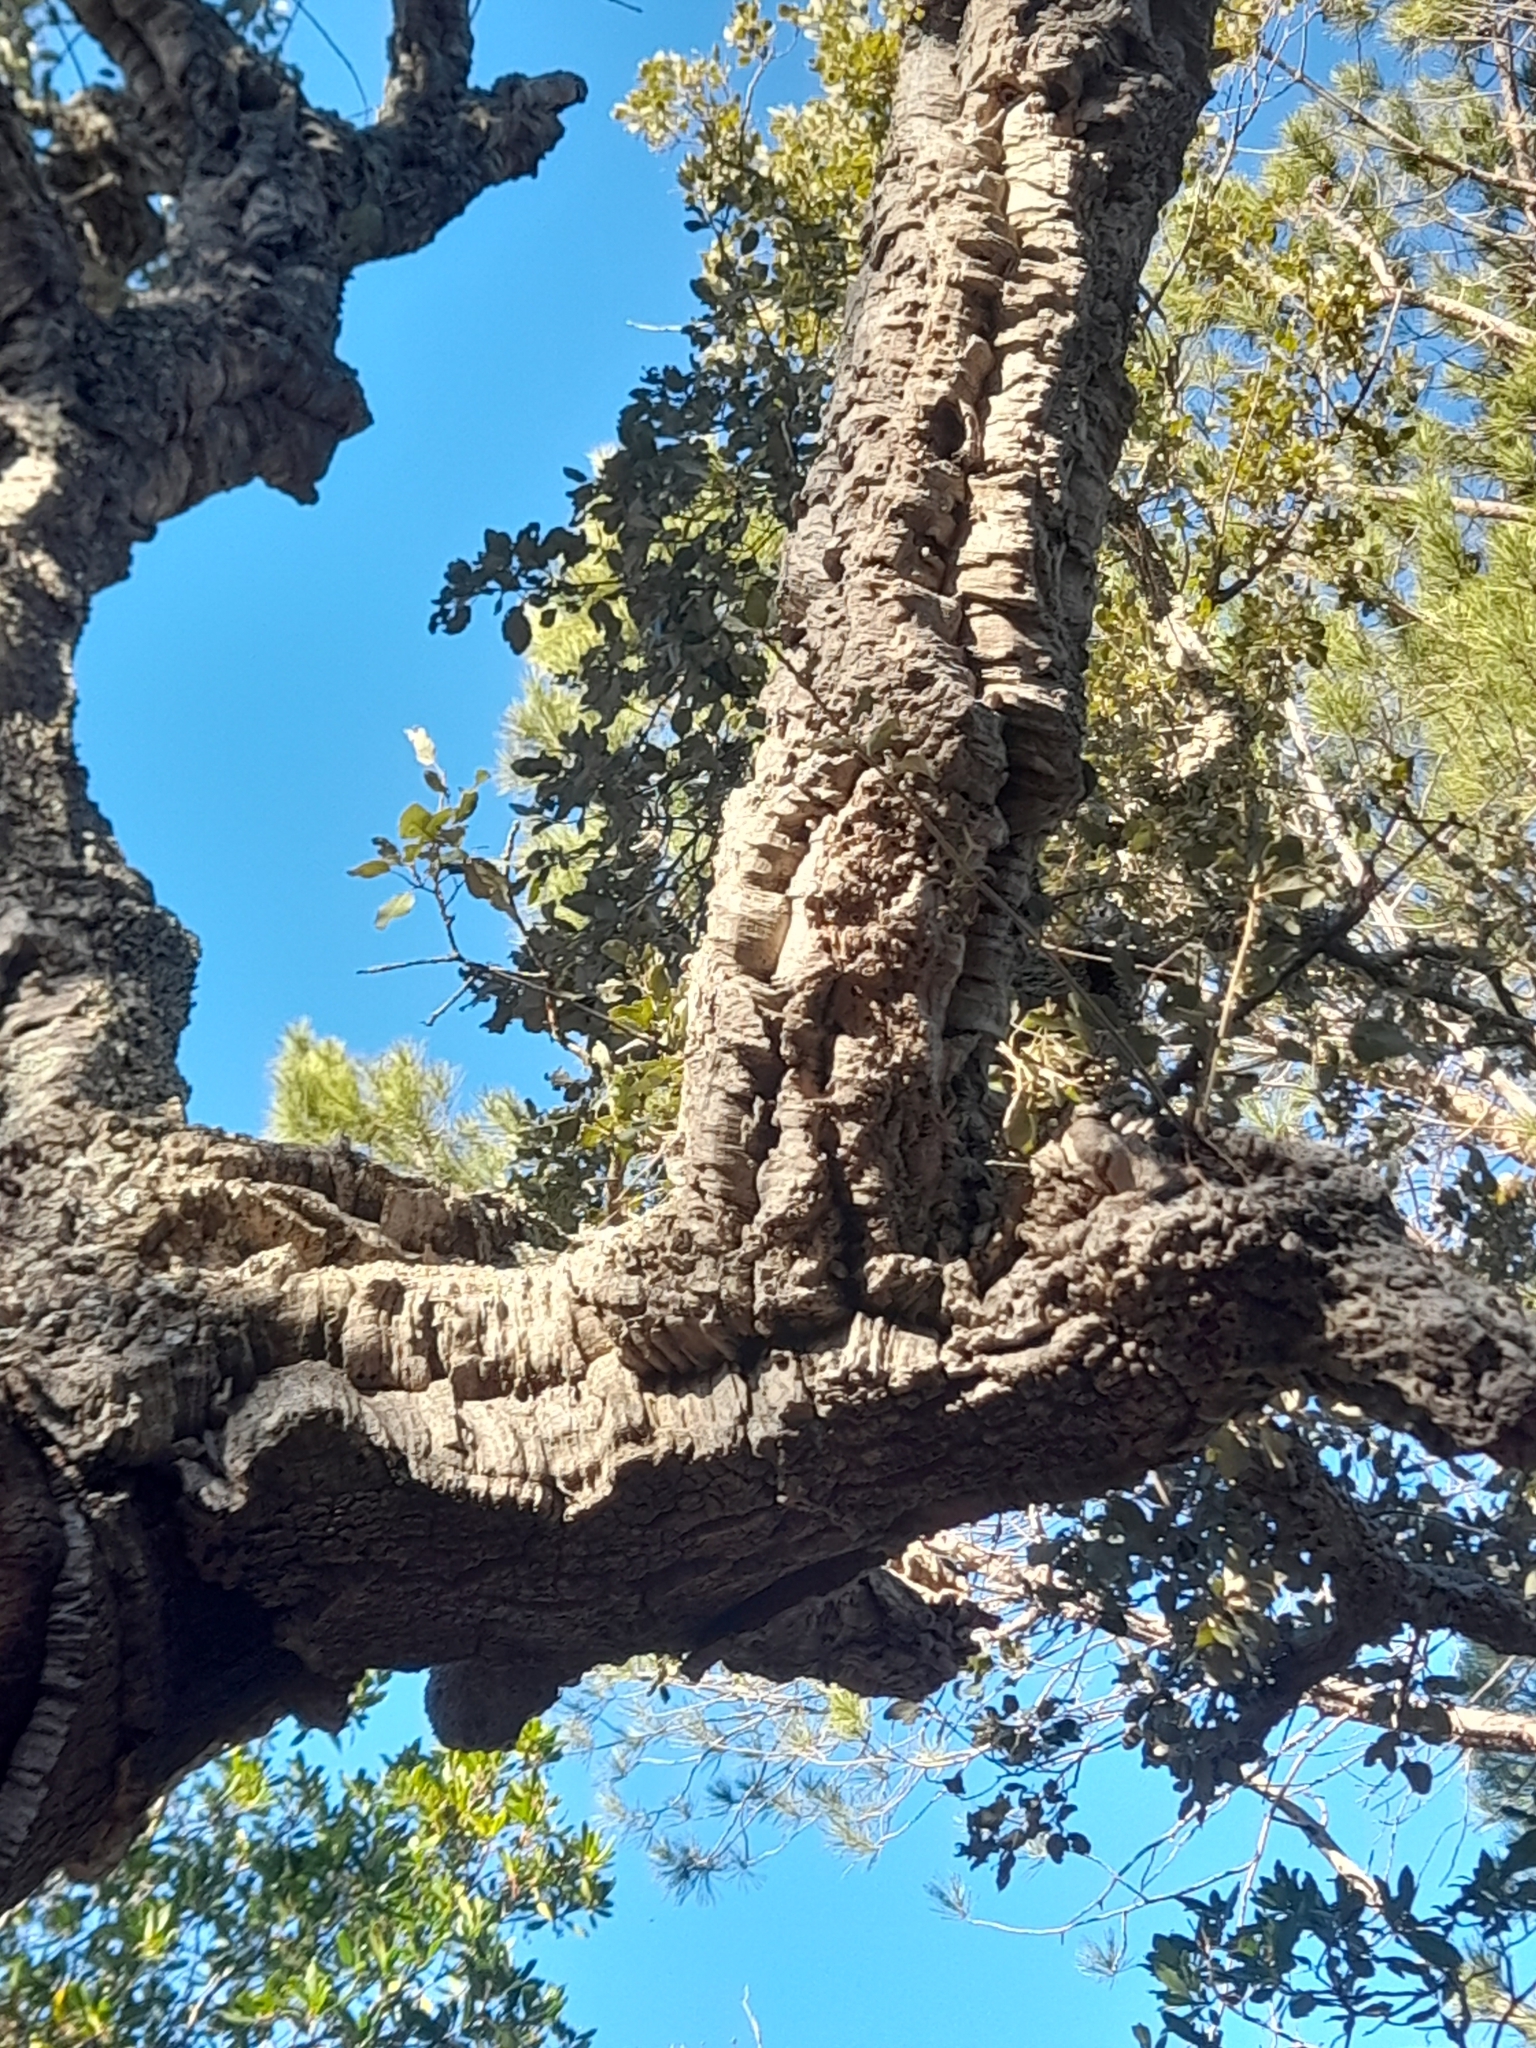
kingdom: Plantae
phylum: Tracheophyta
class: Magnoliopsida
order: Fagales
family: Fagaceae
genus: Quercus
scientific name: Quercus suber
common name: Cork oak
